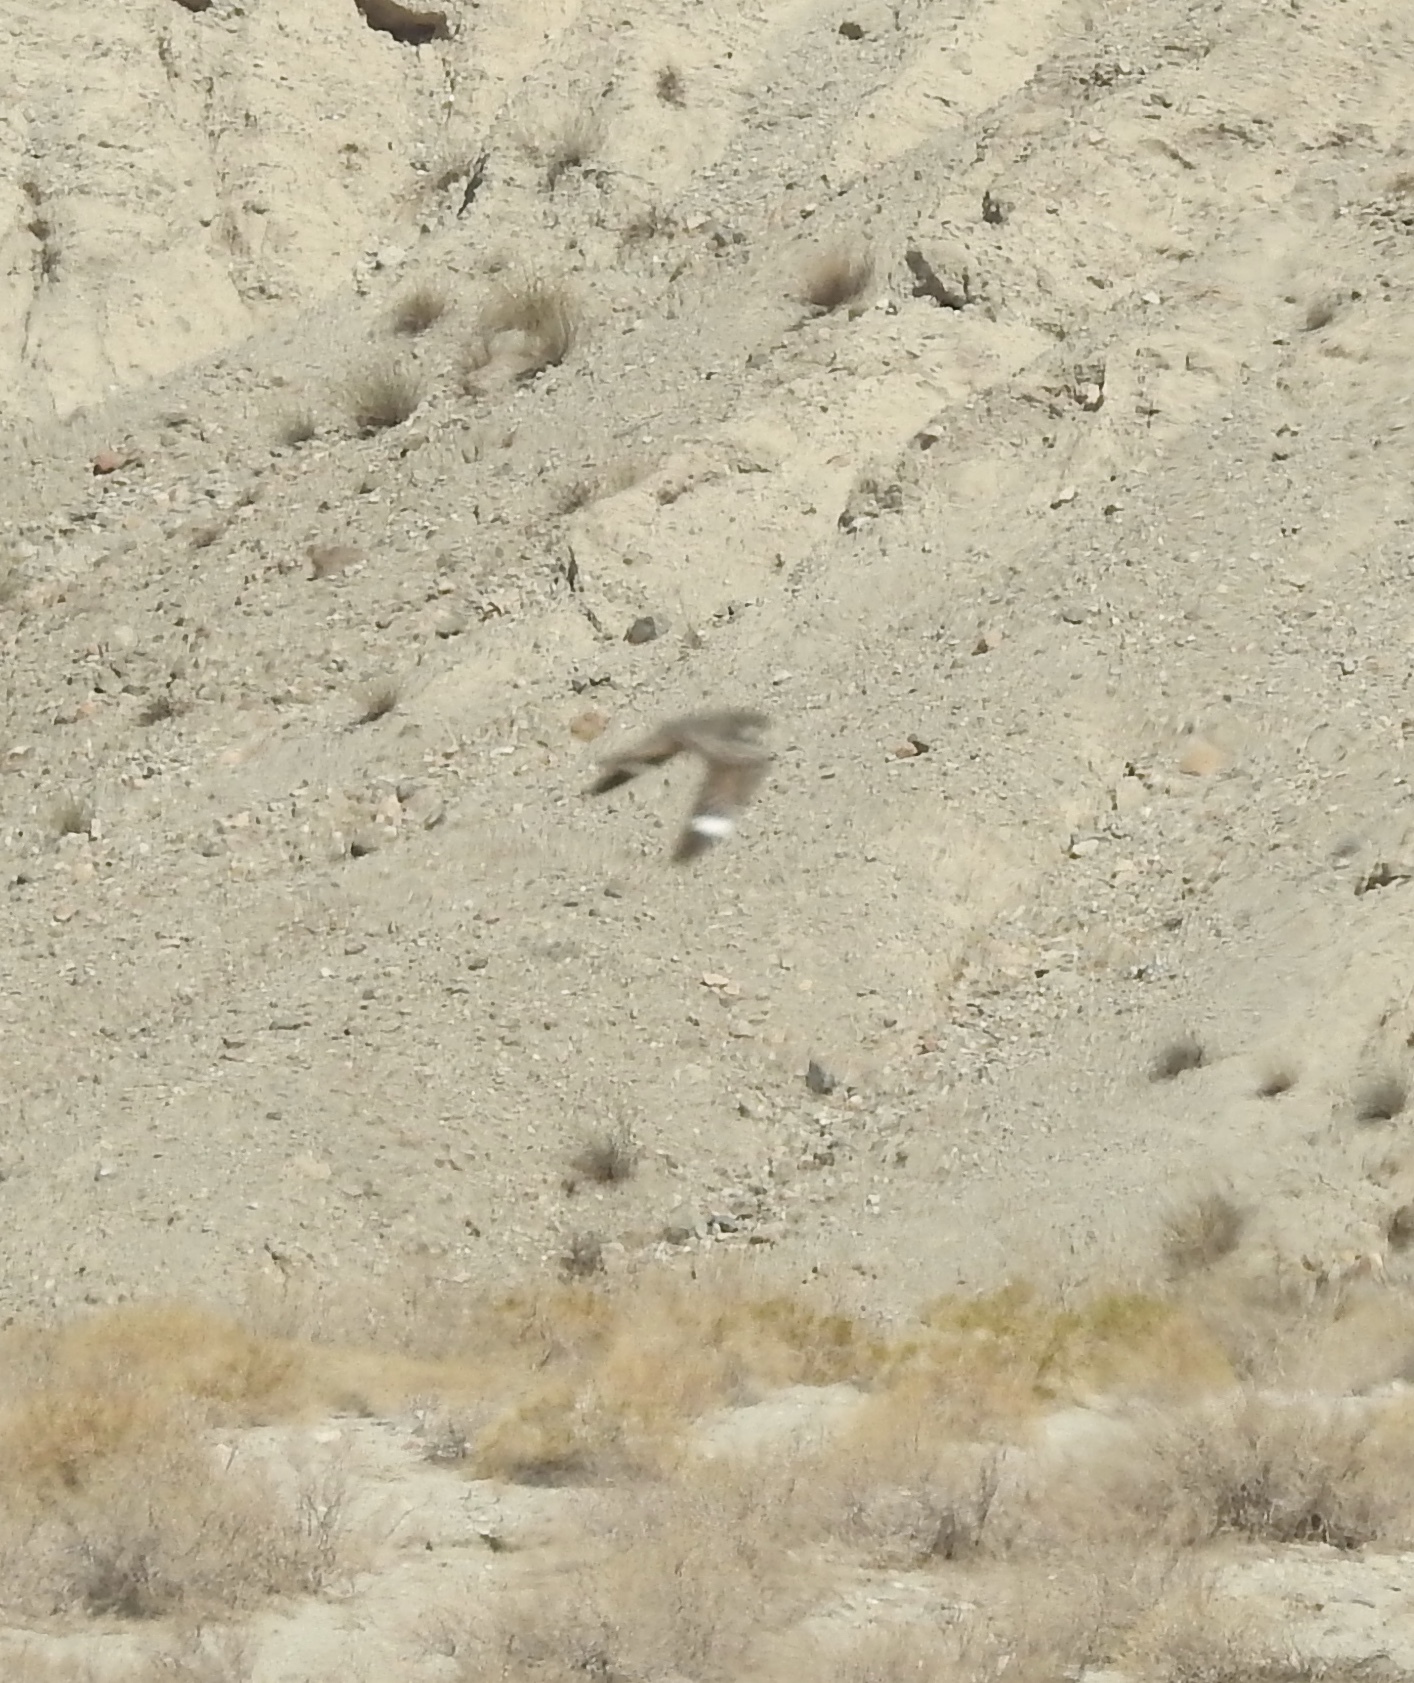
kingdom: Animalia
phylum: Chordata
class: Aves
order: Caprimulgiformes
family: Caprimulgidae
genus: Chordeiles
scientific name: Chordeiles acutipennis
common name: Lesser nighthawk
